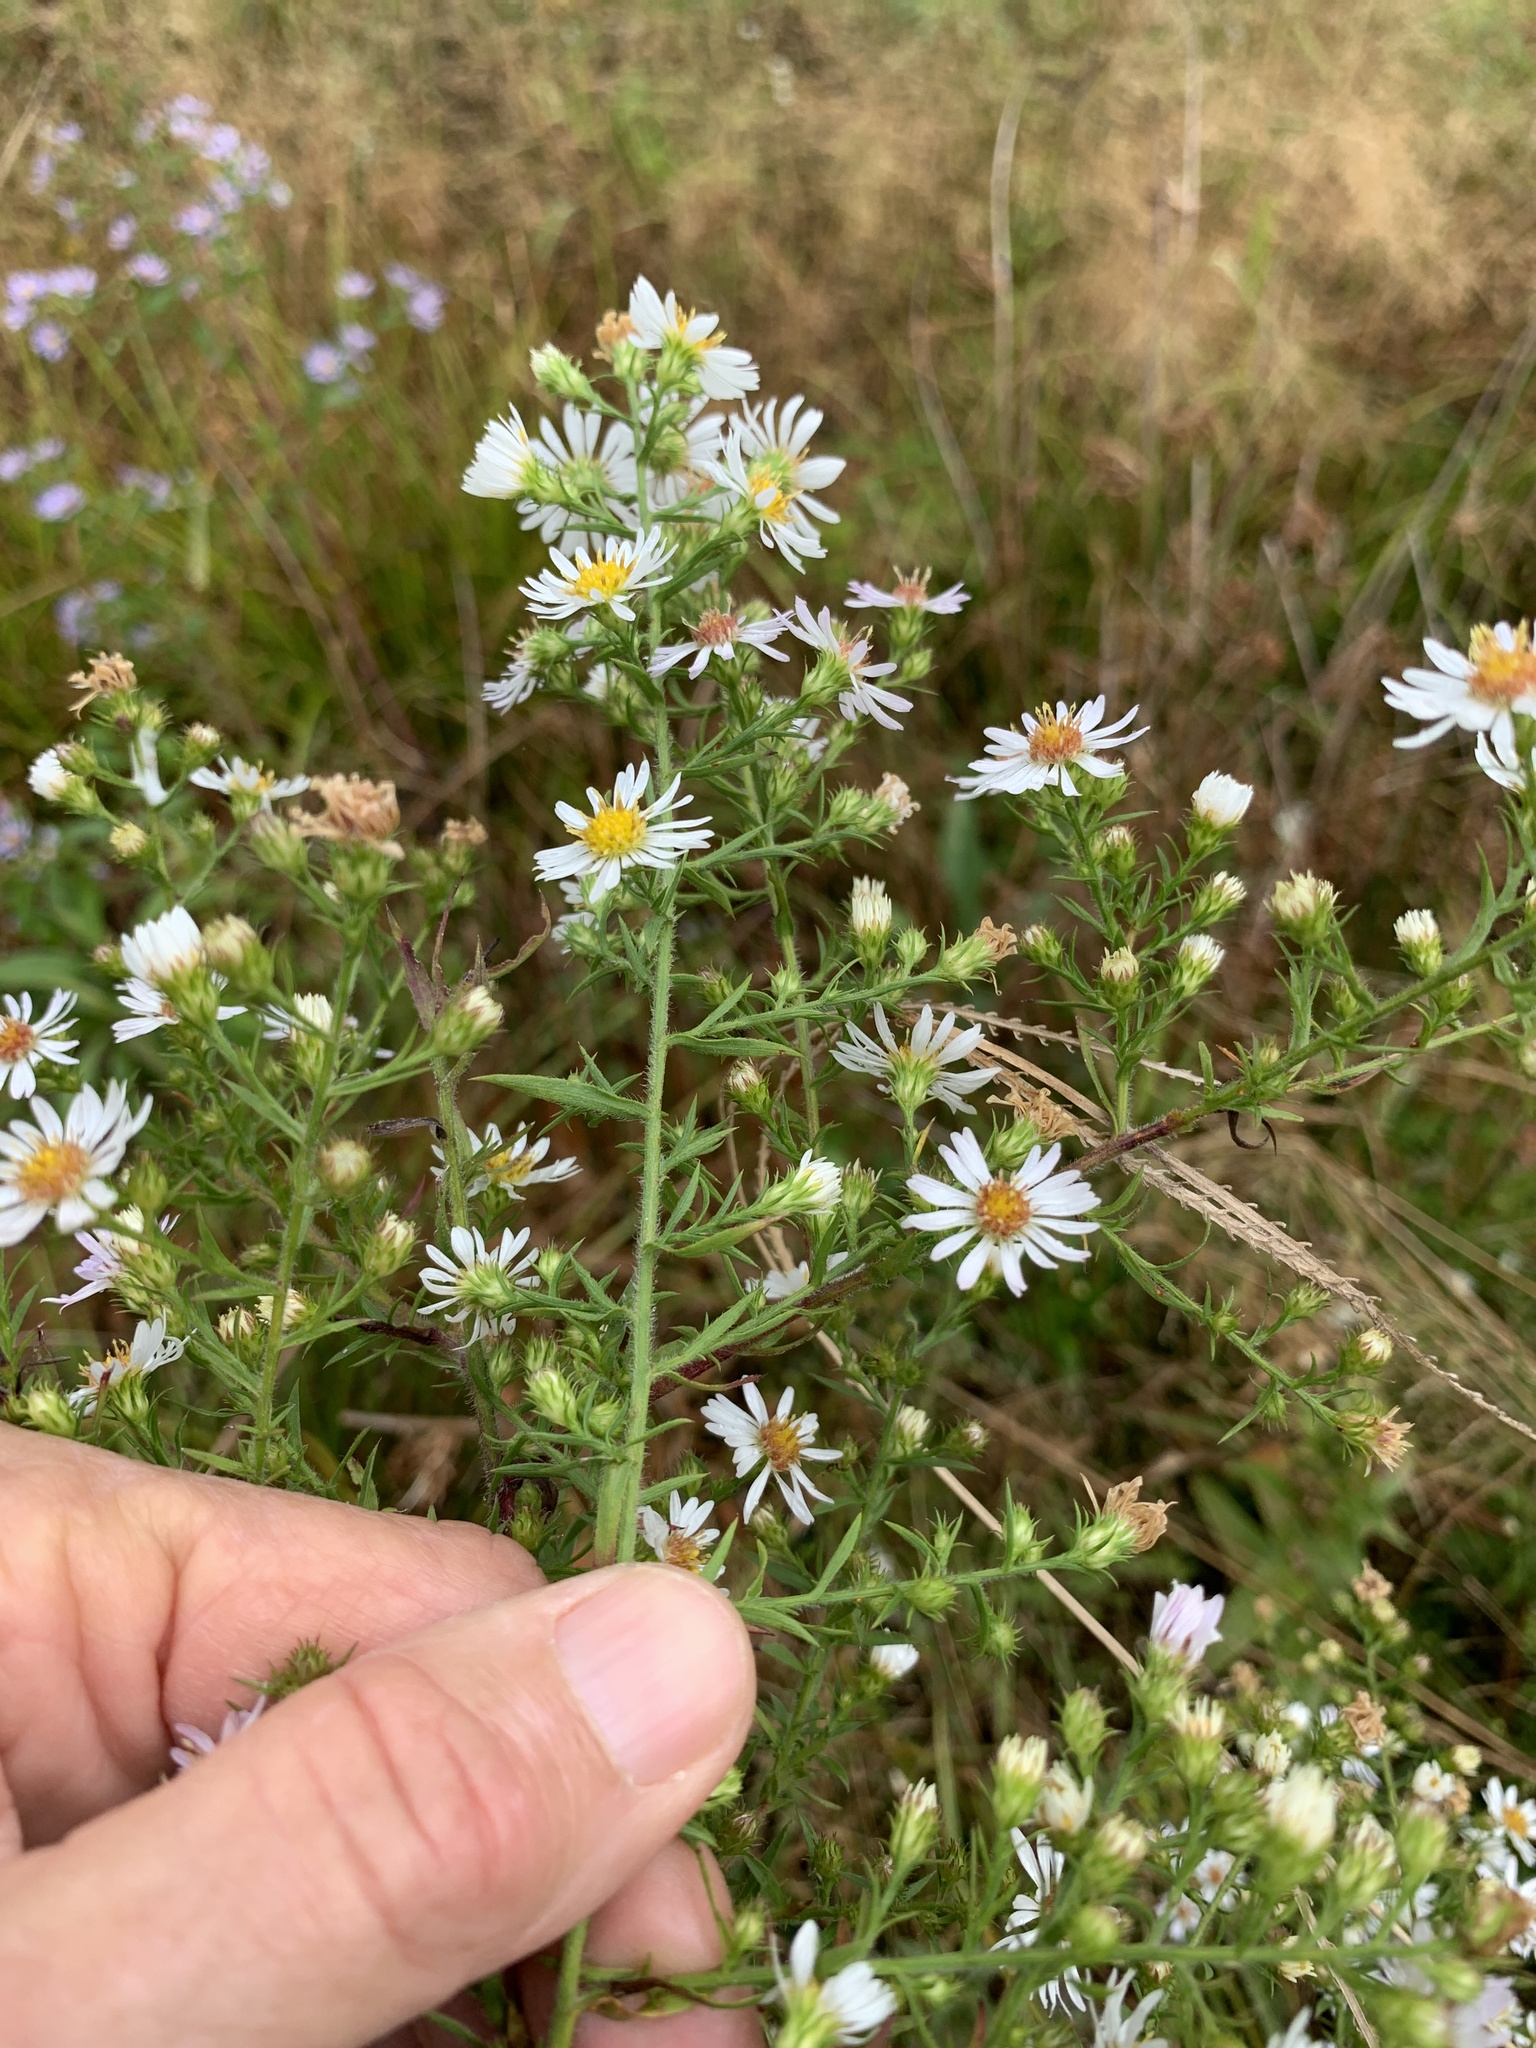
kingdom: Plantae
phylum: Tracheophyta
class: Magnoliopsida
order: Asterales
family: Asteraceae
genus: Symphyotrichum
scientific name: Symphyotrichum pilosum
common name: Awl aster
